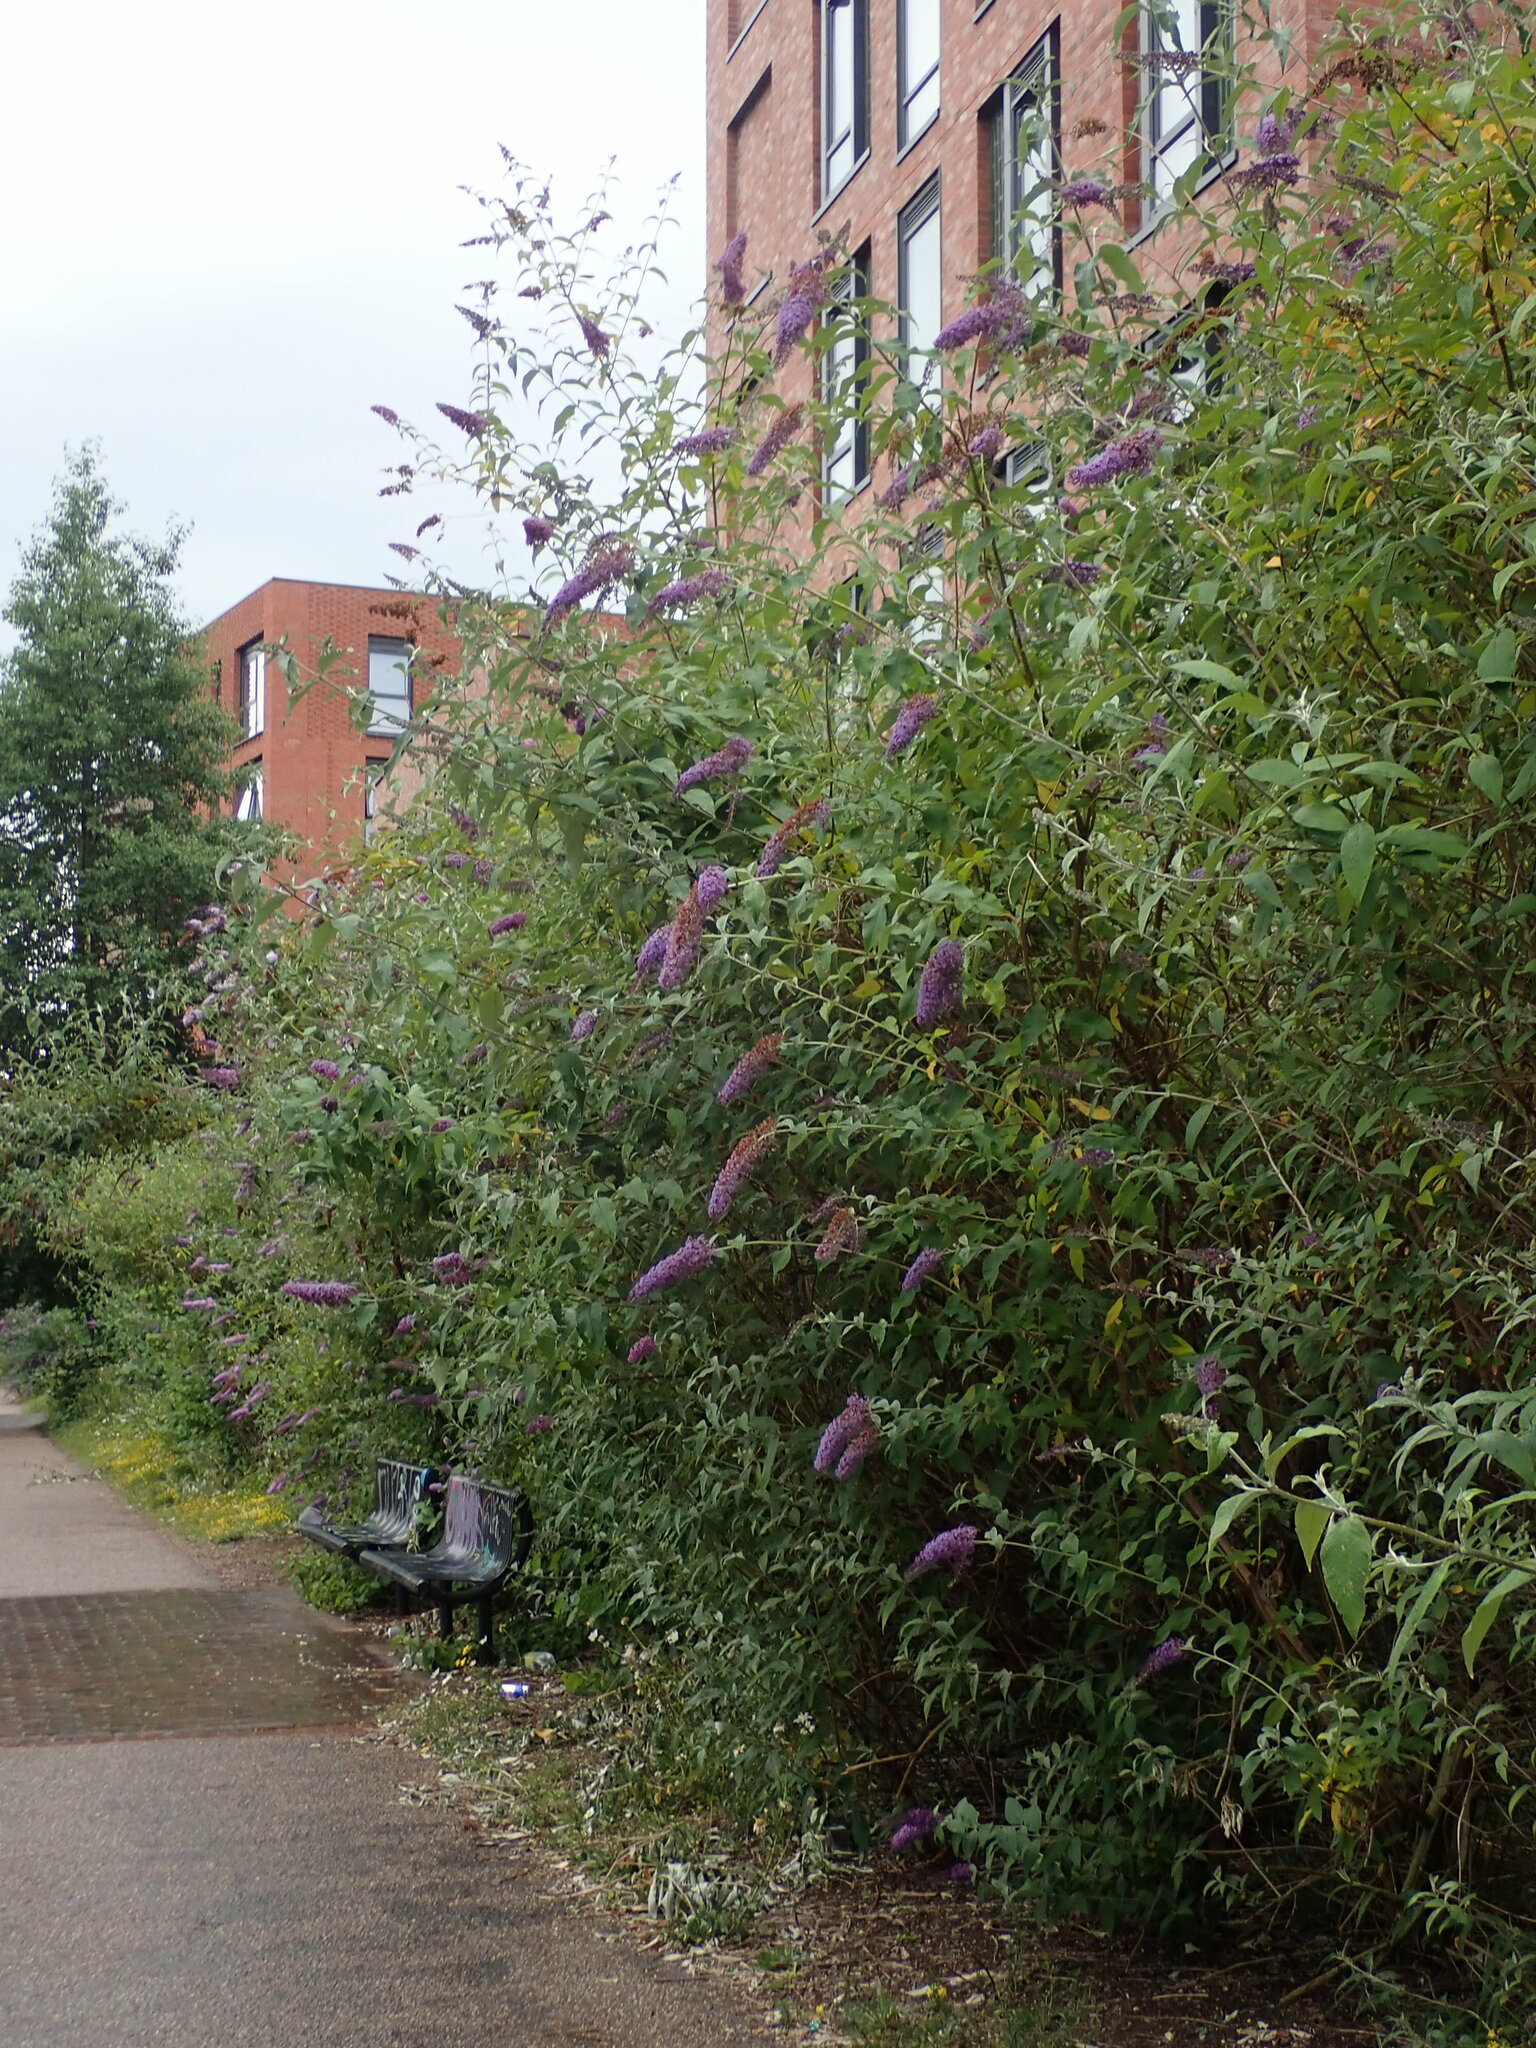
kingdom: Plantae
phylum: Tracheophyta
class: Magnoliopsida
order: Lamiales
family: Scrophulariaceae
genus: Buddleja
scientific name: Buddleja davidii
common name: Butterfly-bush
